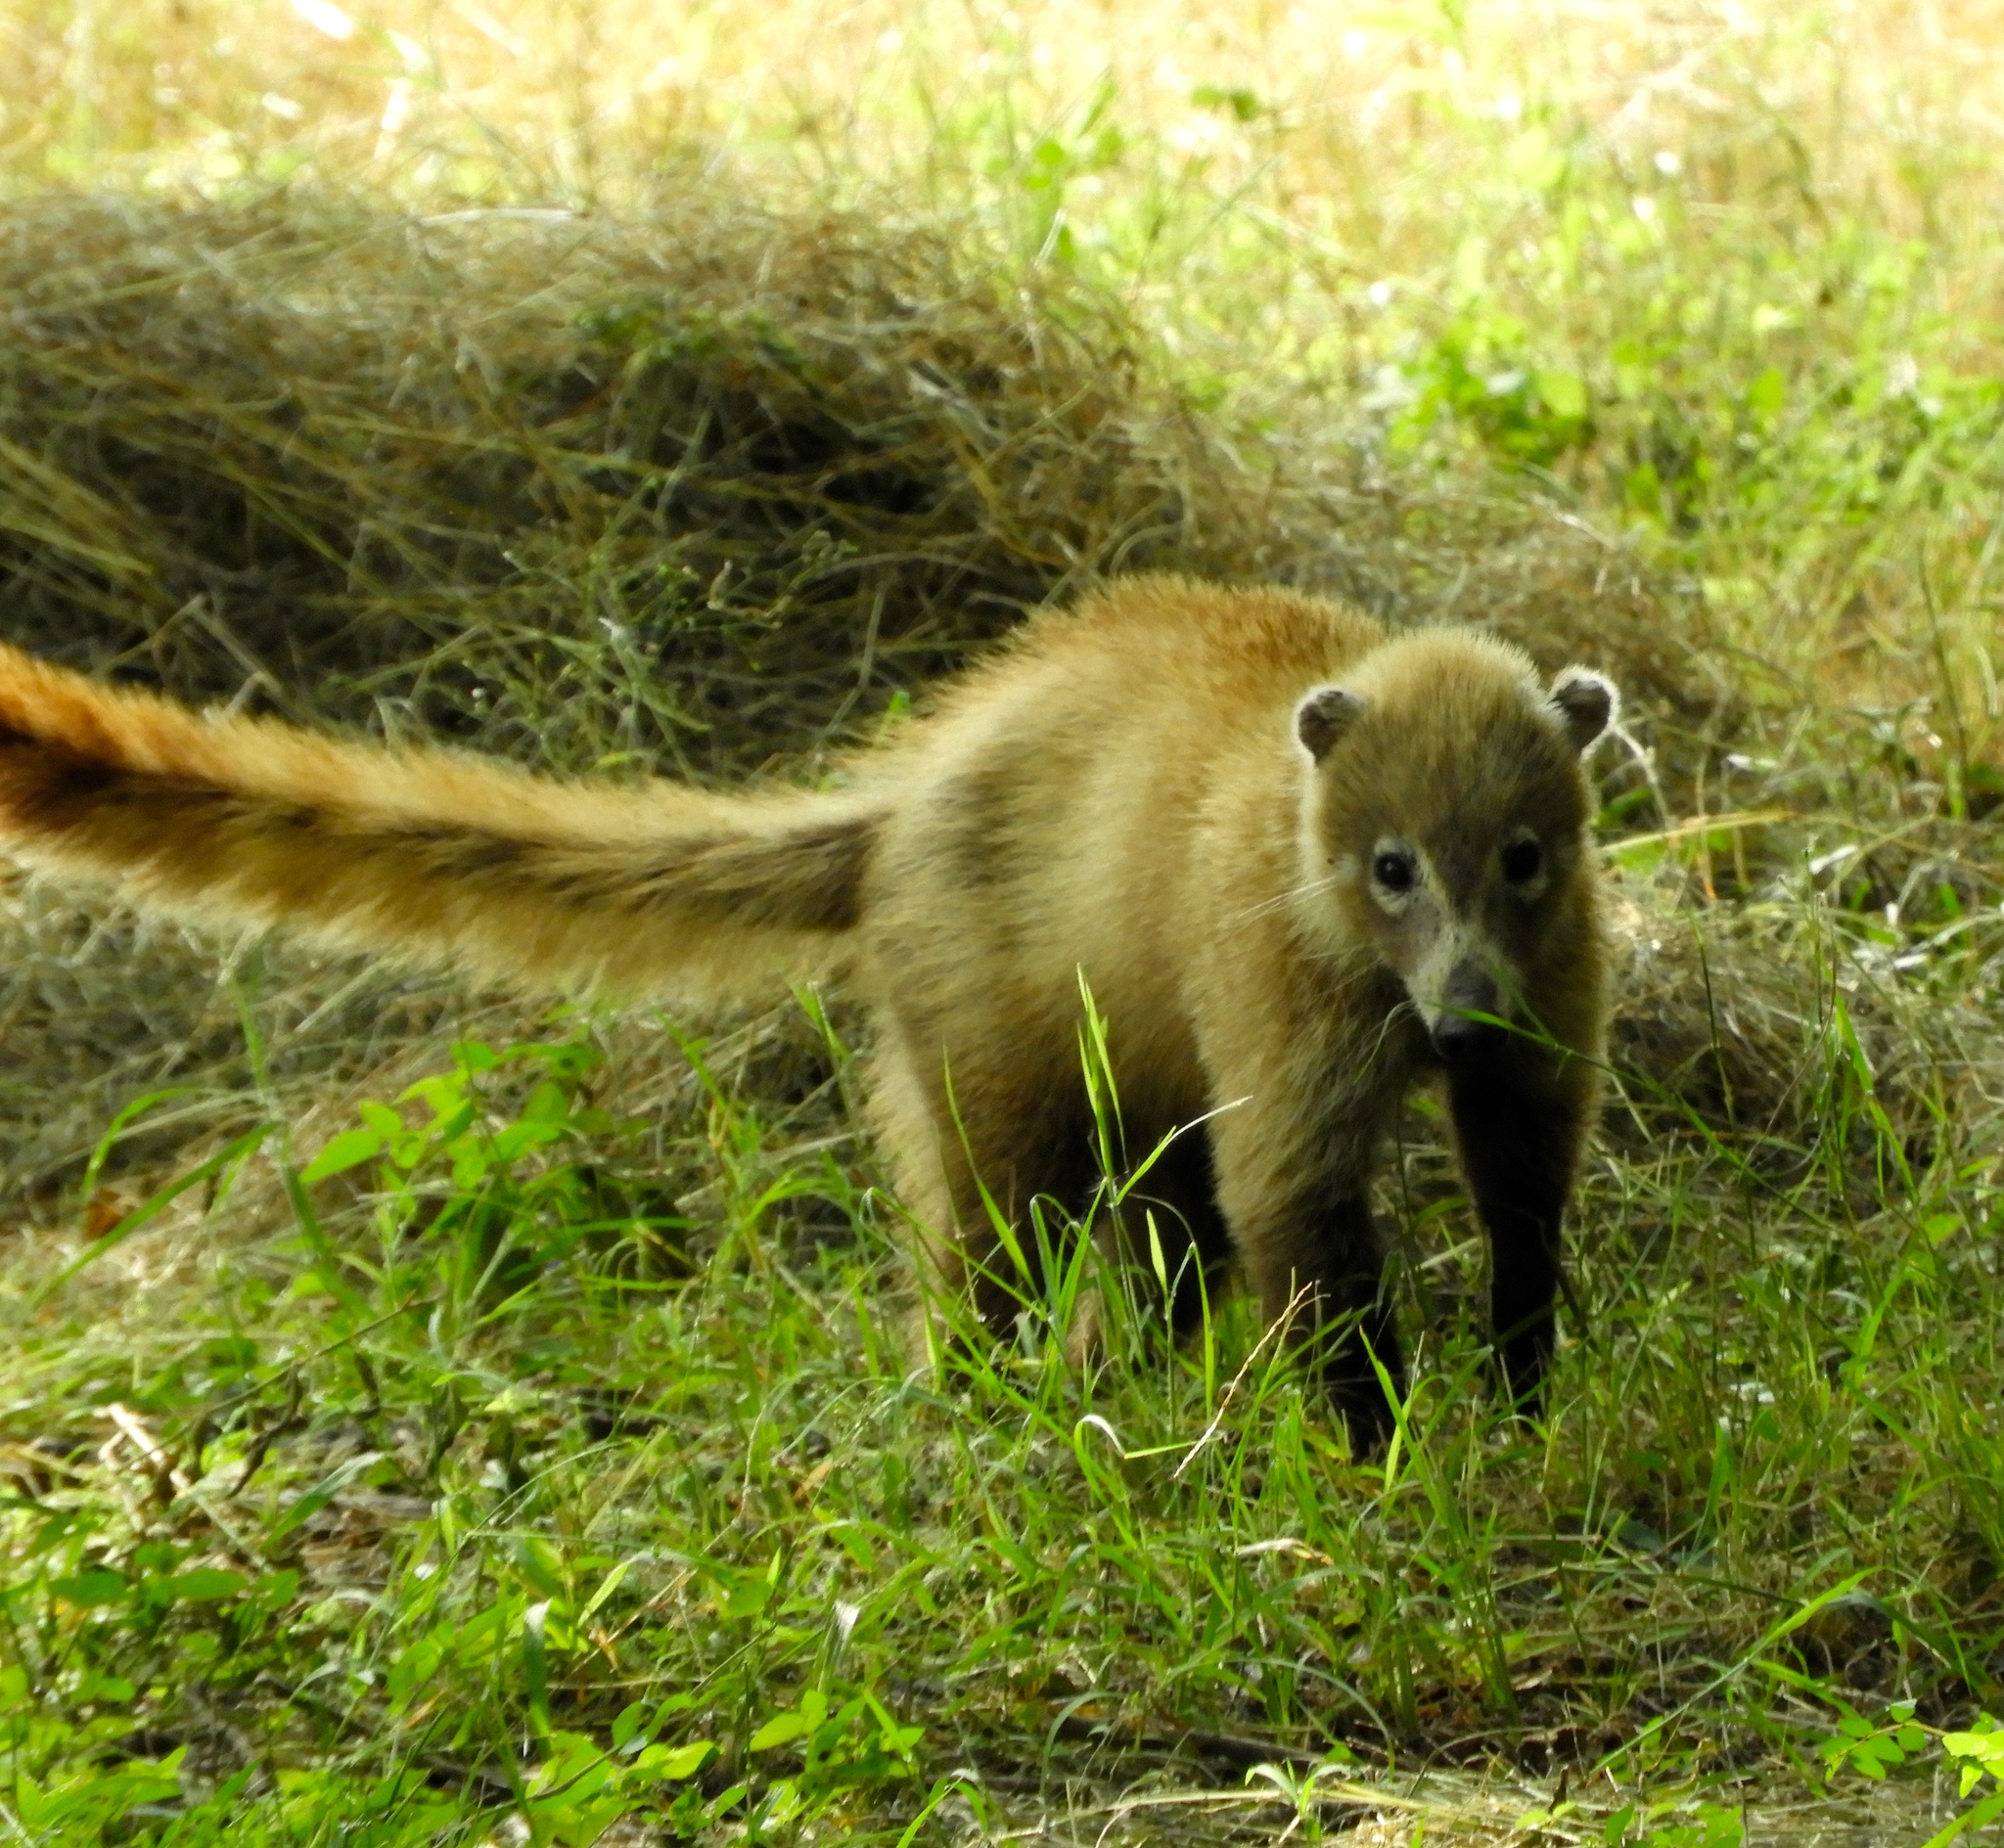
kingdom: Animalia
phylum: Chordata
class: Mammalia
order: Carnivora
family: Procyonidae
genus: Nasua
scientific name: Nasua narica
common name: White-nosed coati
